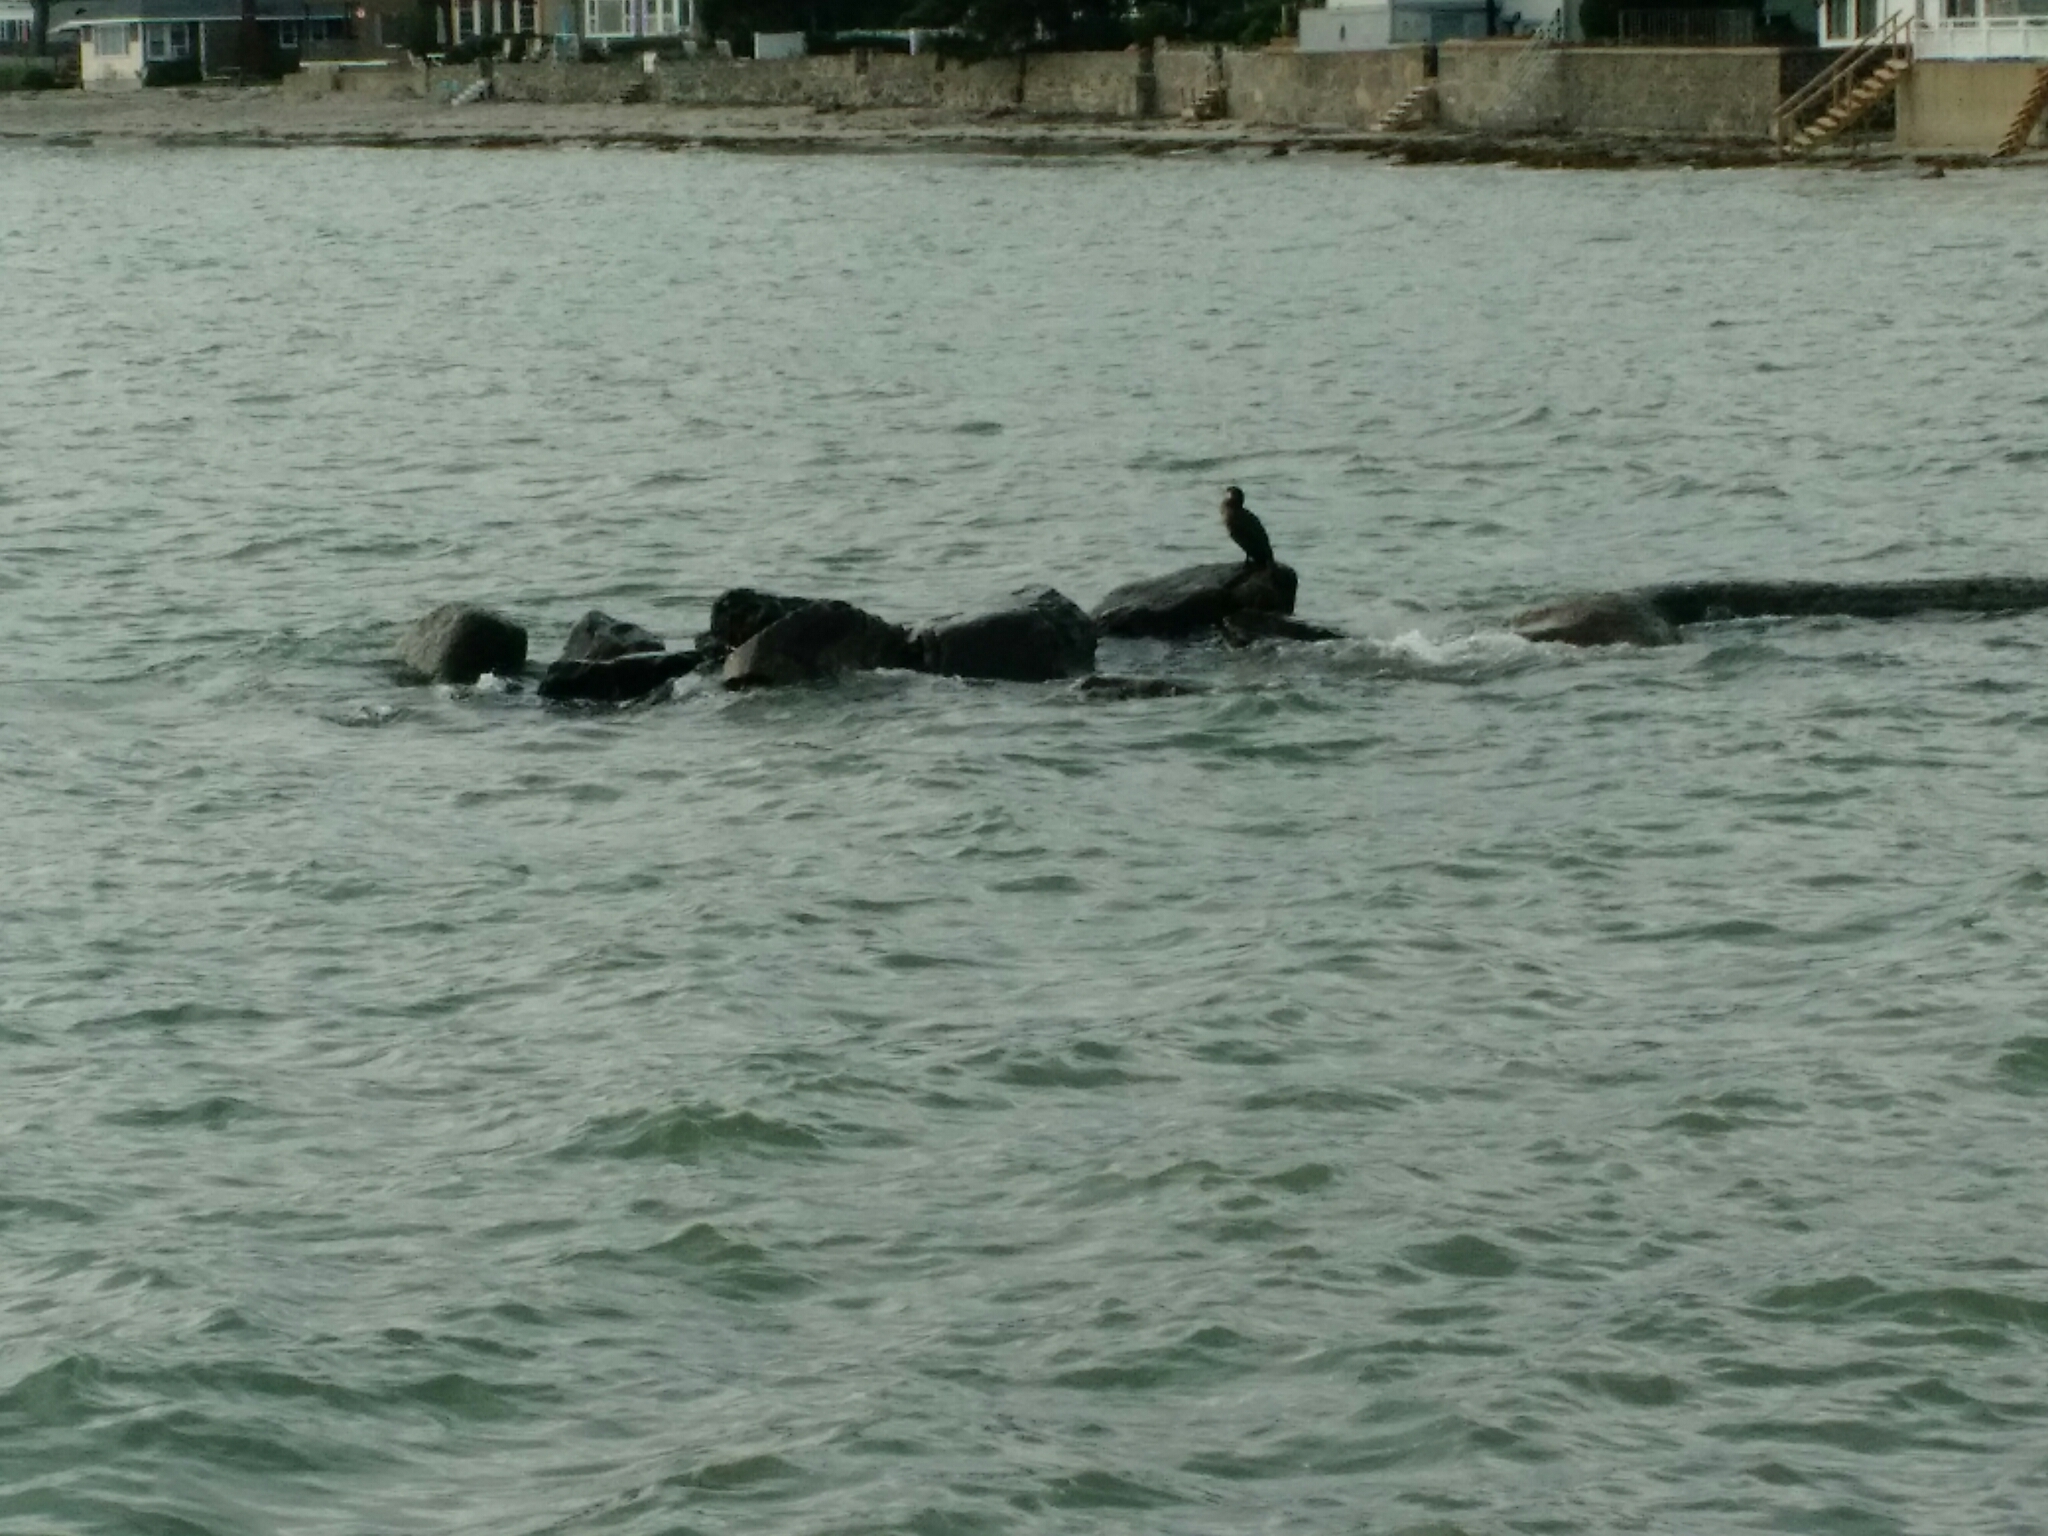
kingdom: Animalia
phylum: Chordata
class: Aves
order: Suliformes
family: Phalacrocoracidae
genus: Phalacrocorax
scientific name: Phalacrocorax auritus
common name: Double-crested cormorant
